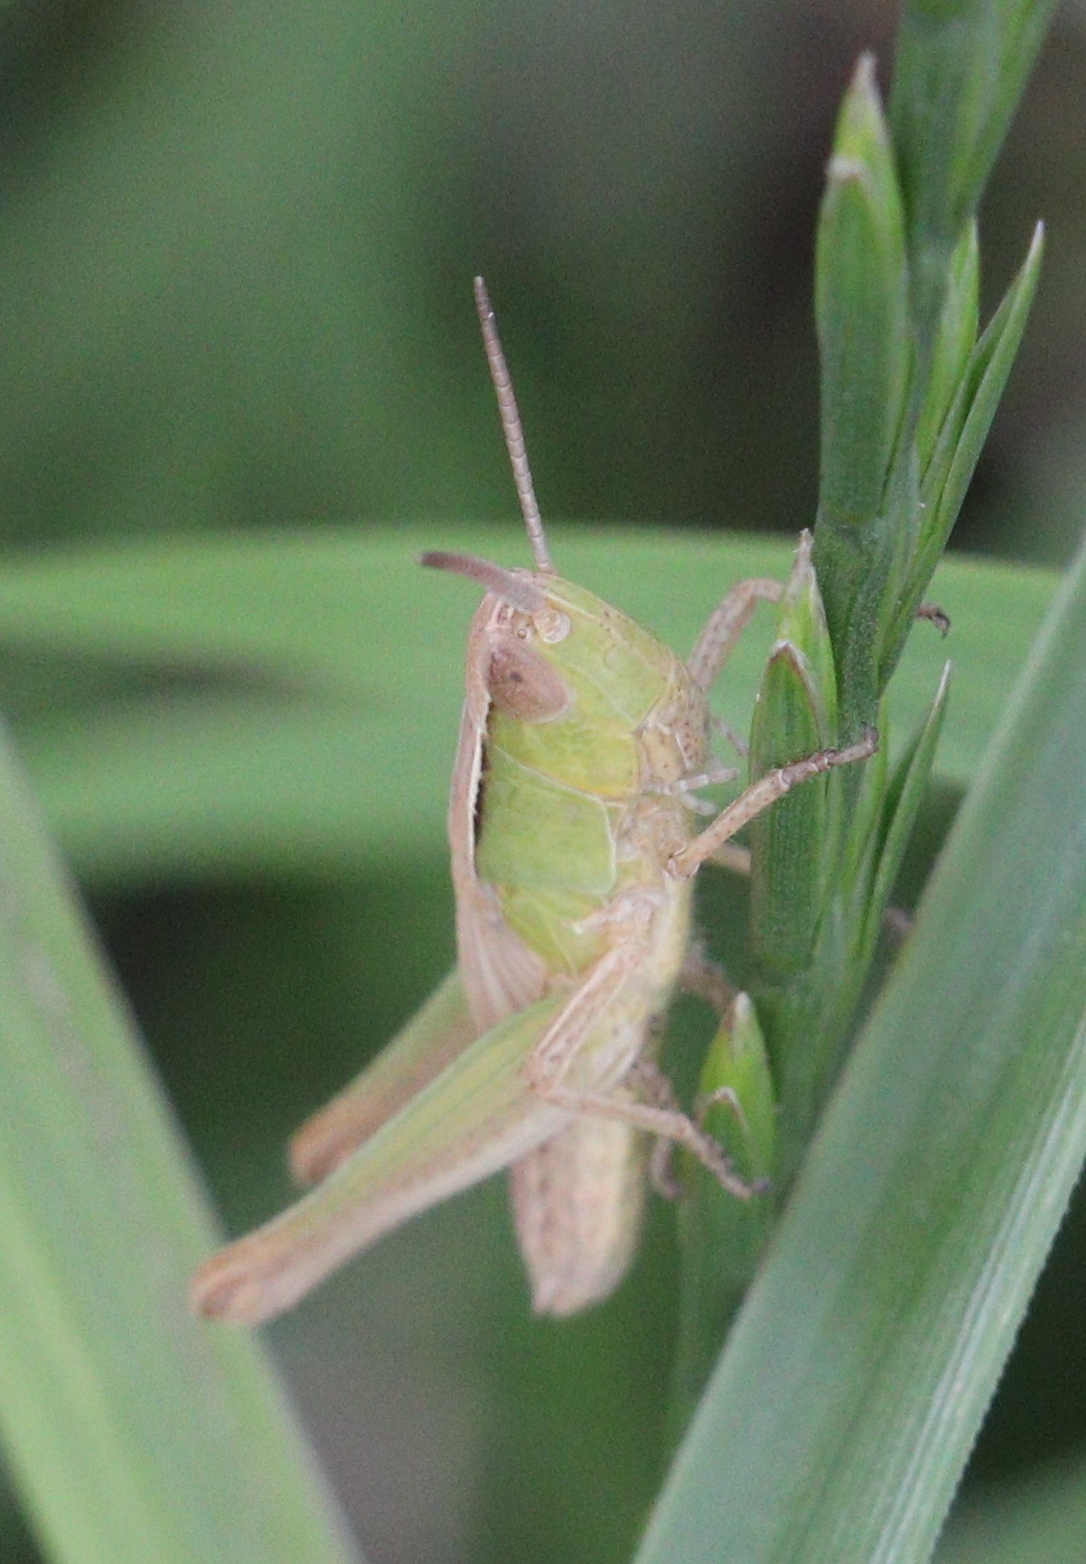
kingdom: Animalia
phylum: Arthropoda
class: Insecta
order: Orthoptera
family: Acrididae
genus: Chorthippus
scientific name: Chorthippus albomarginatus
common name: Lesser marsh grasshopper
